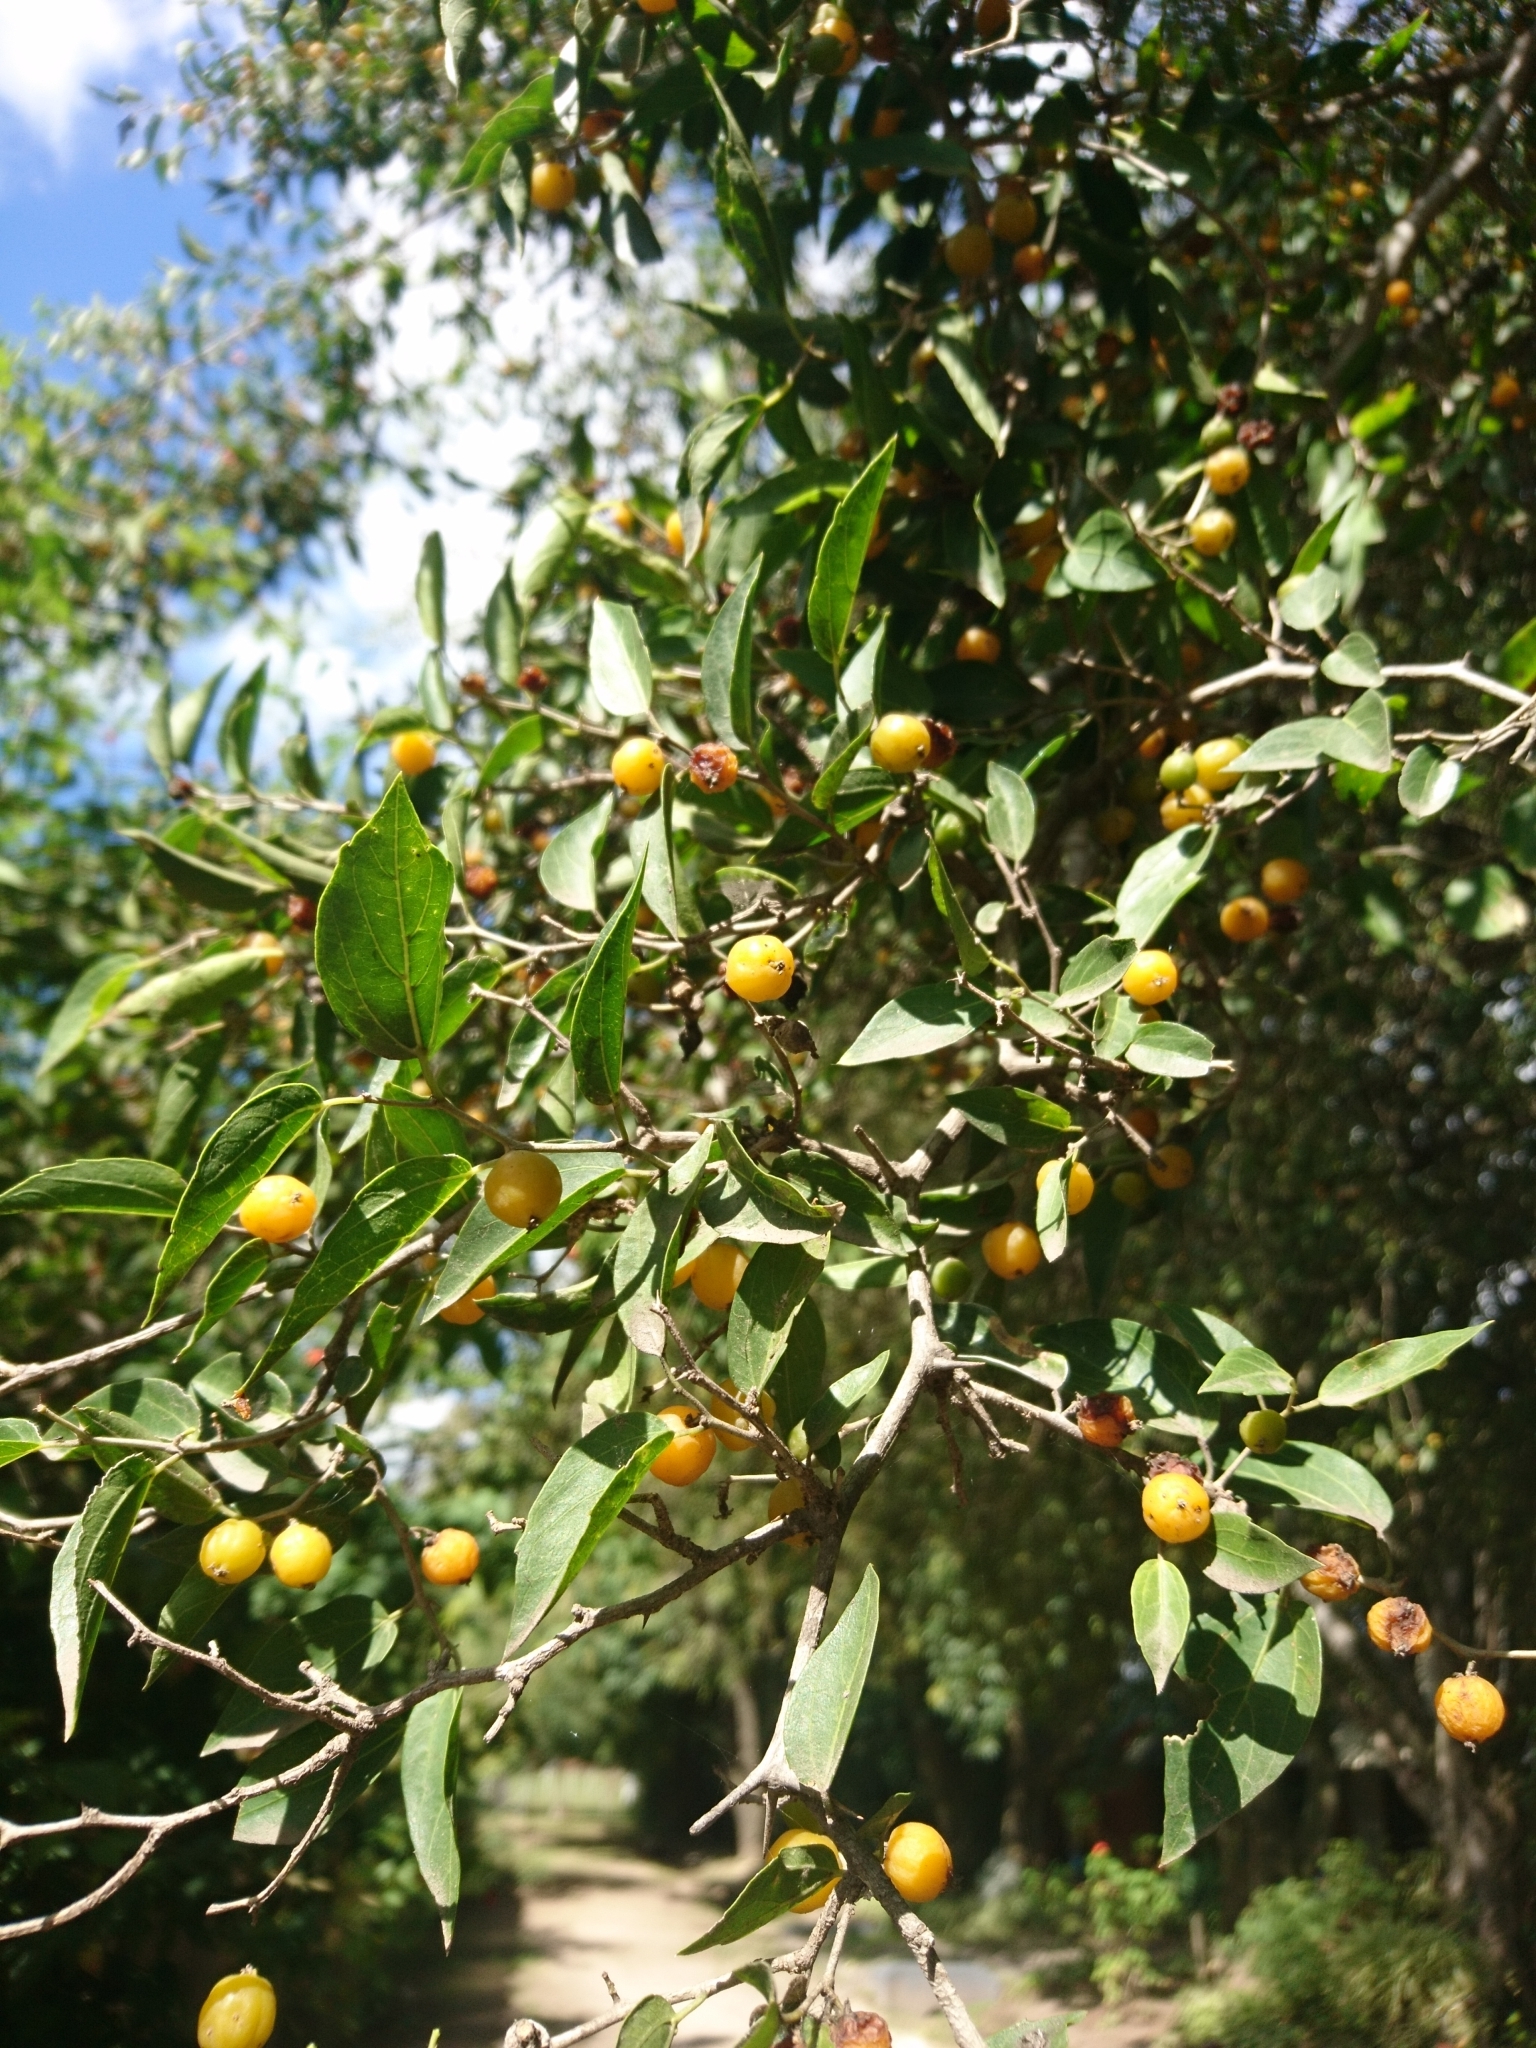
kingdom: Plantae
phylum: Tracheophyta
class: Magnoliopsida
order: Rosales
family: Cannabaceae
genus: Celtis
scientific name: Celtis tala
